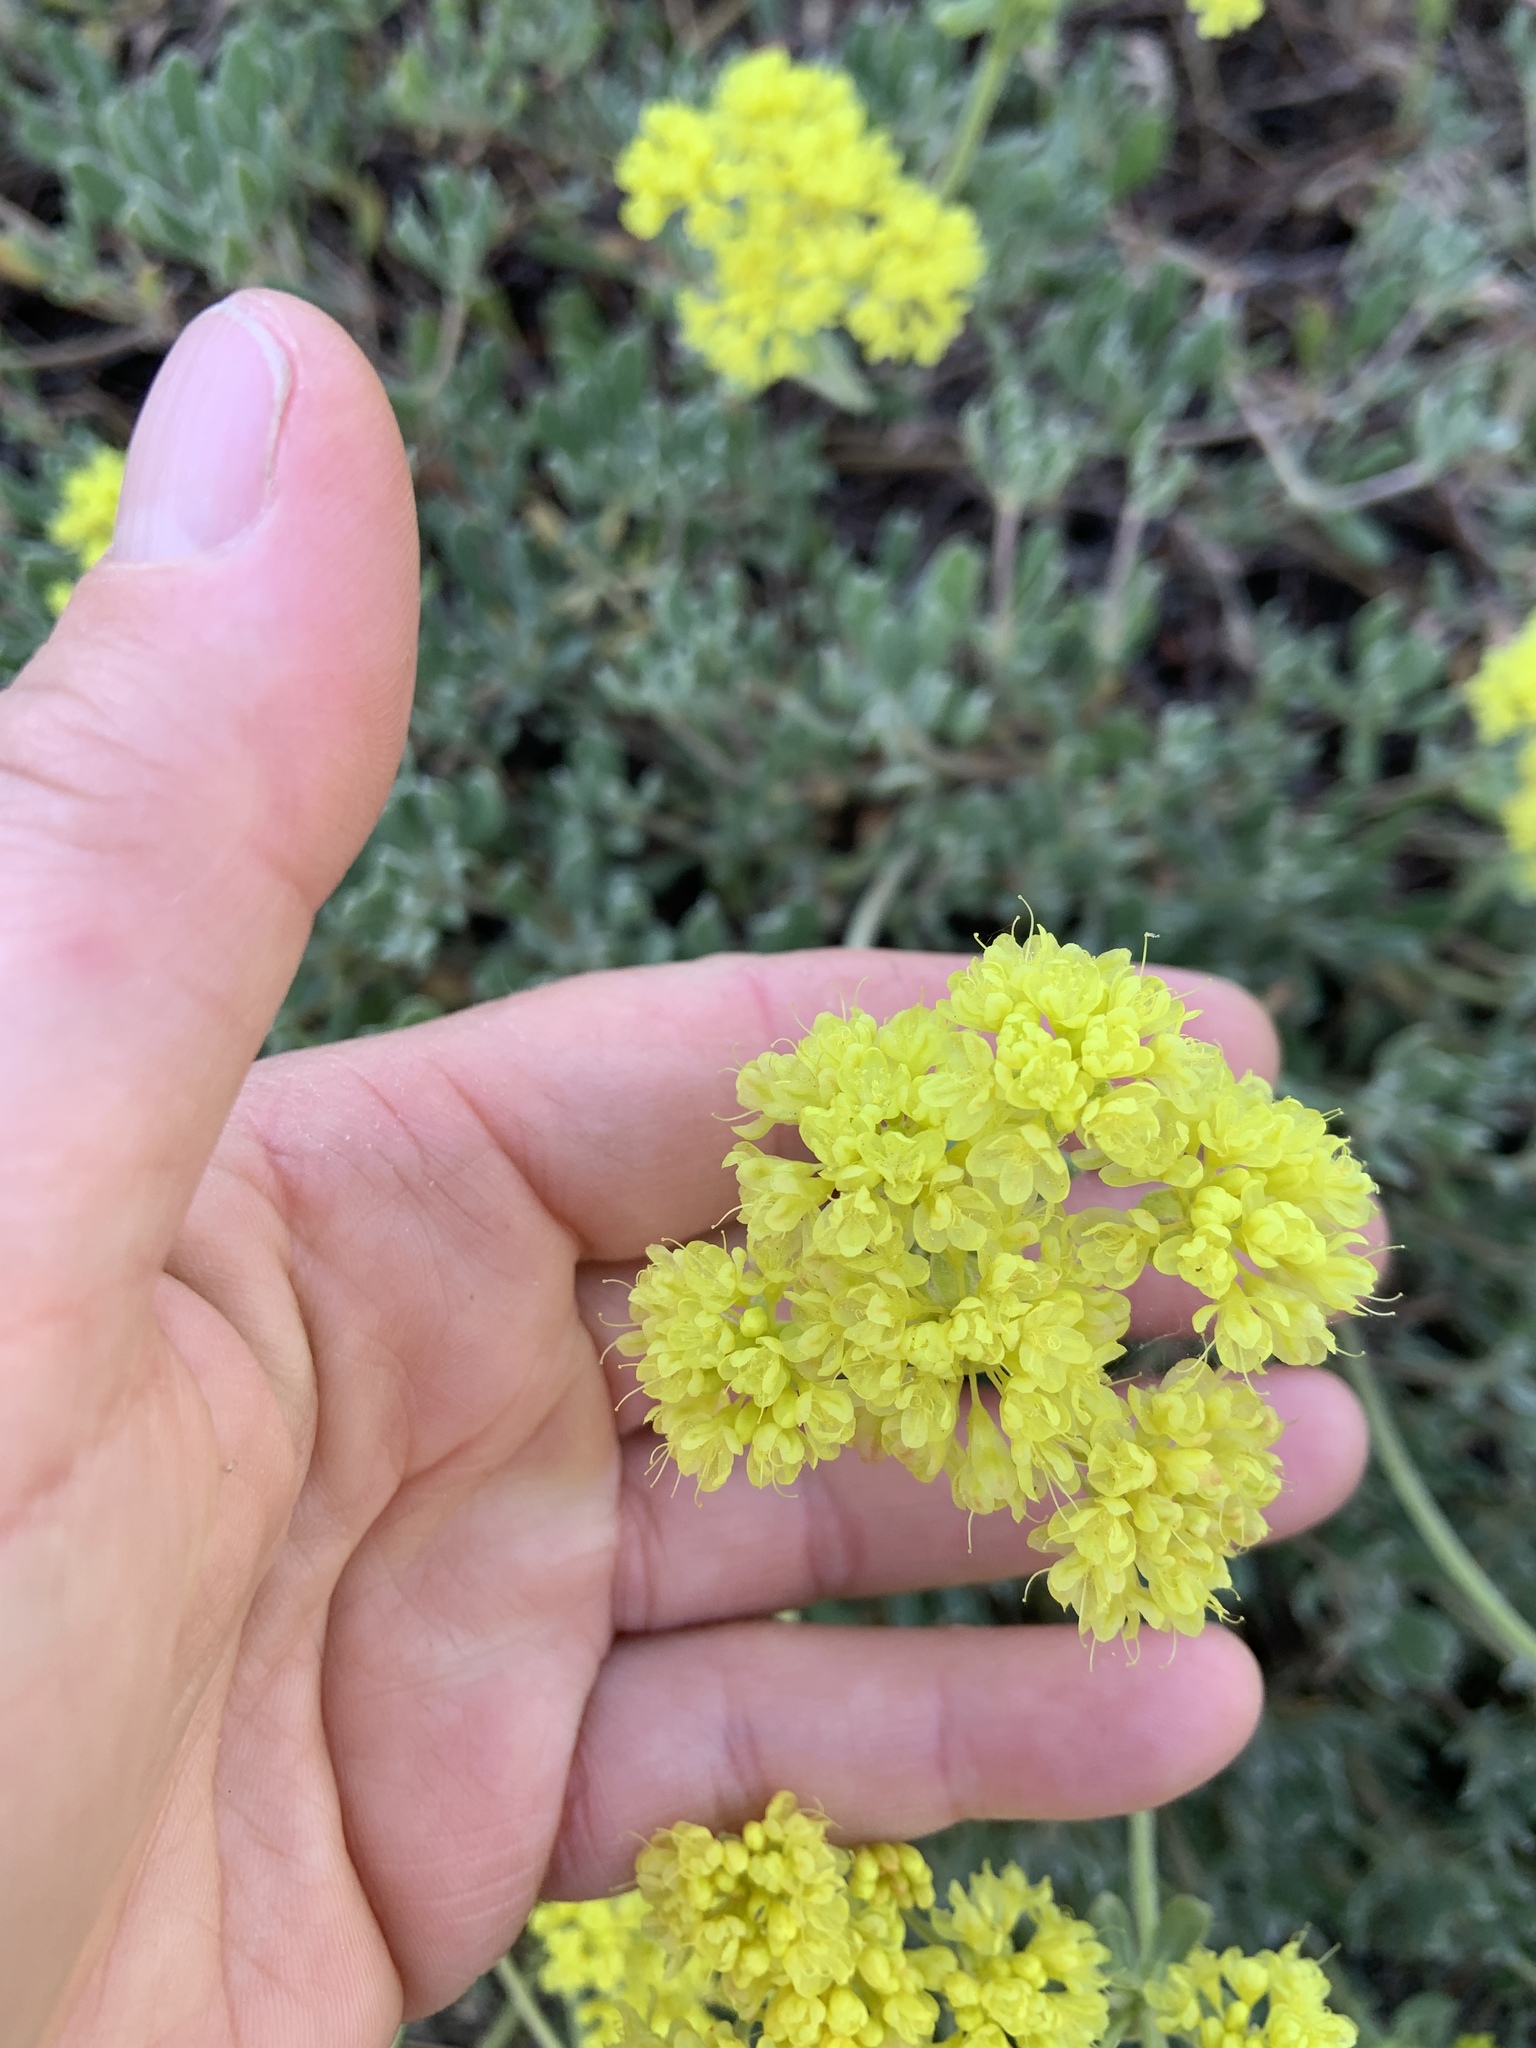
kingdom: Plantae
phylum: Tracheophyta
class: Magnoliopsida
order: Caryophyllales
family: Polygonaceae
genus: Eriogonum
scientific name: Eriogonum umbellatum
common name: Sulfur-buckwheat
